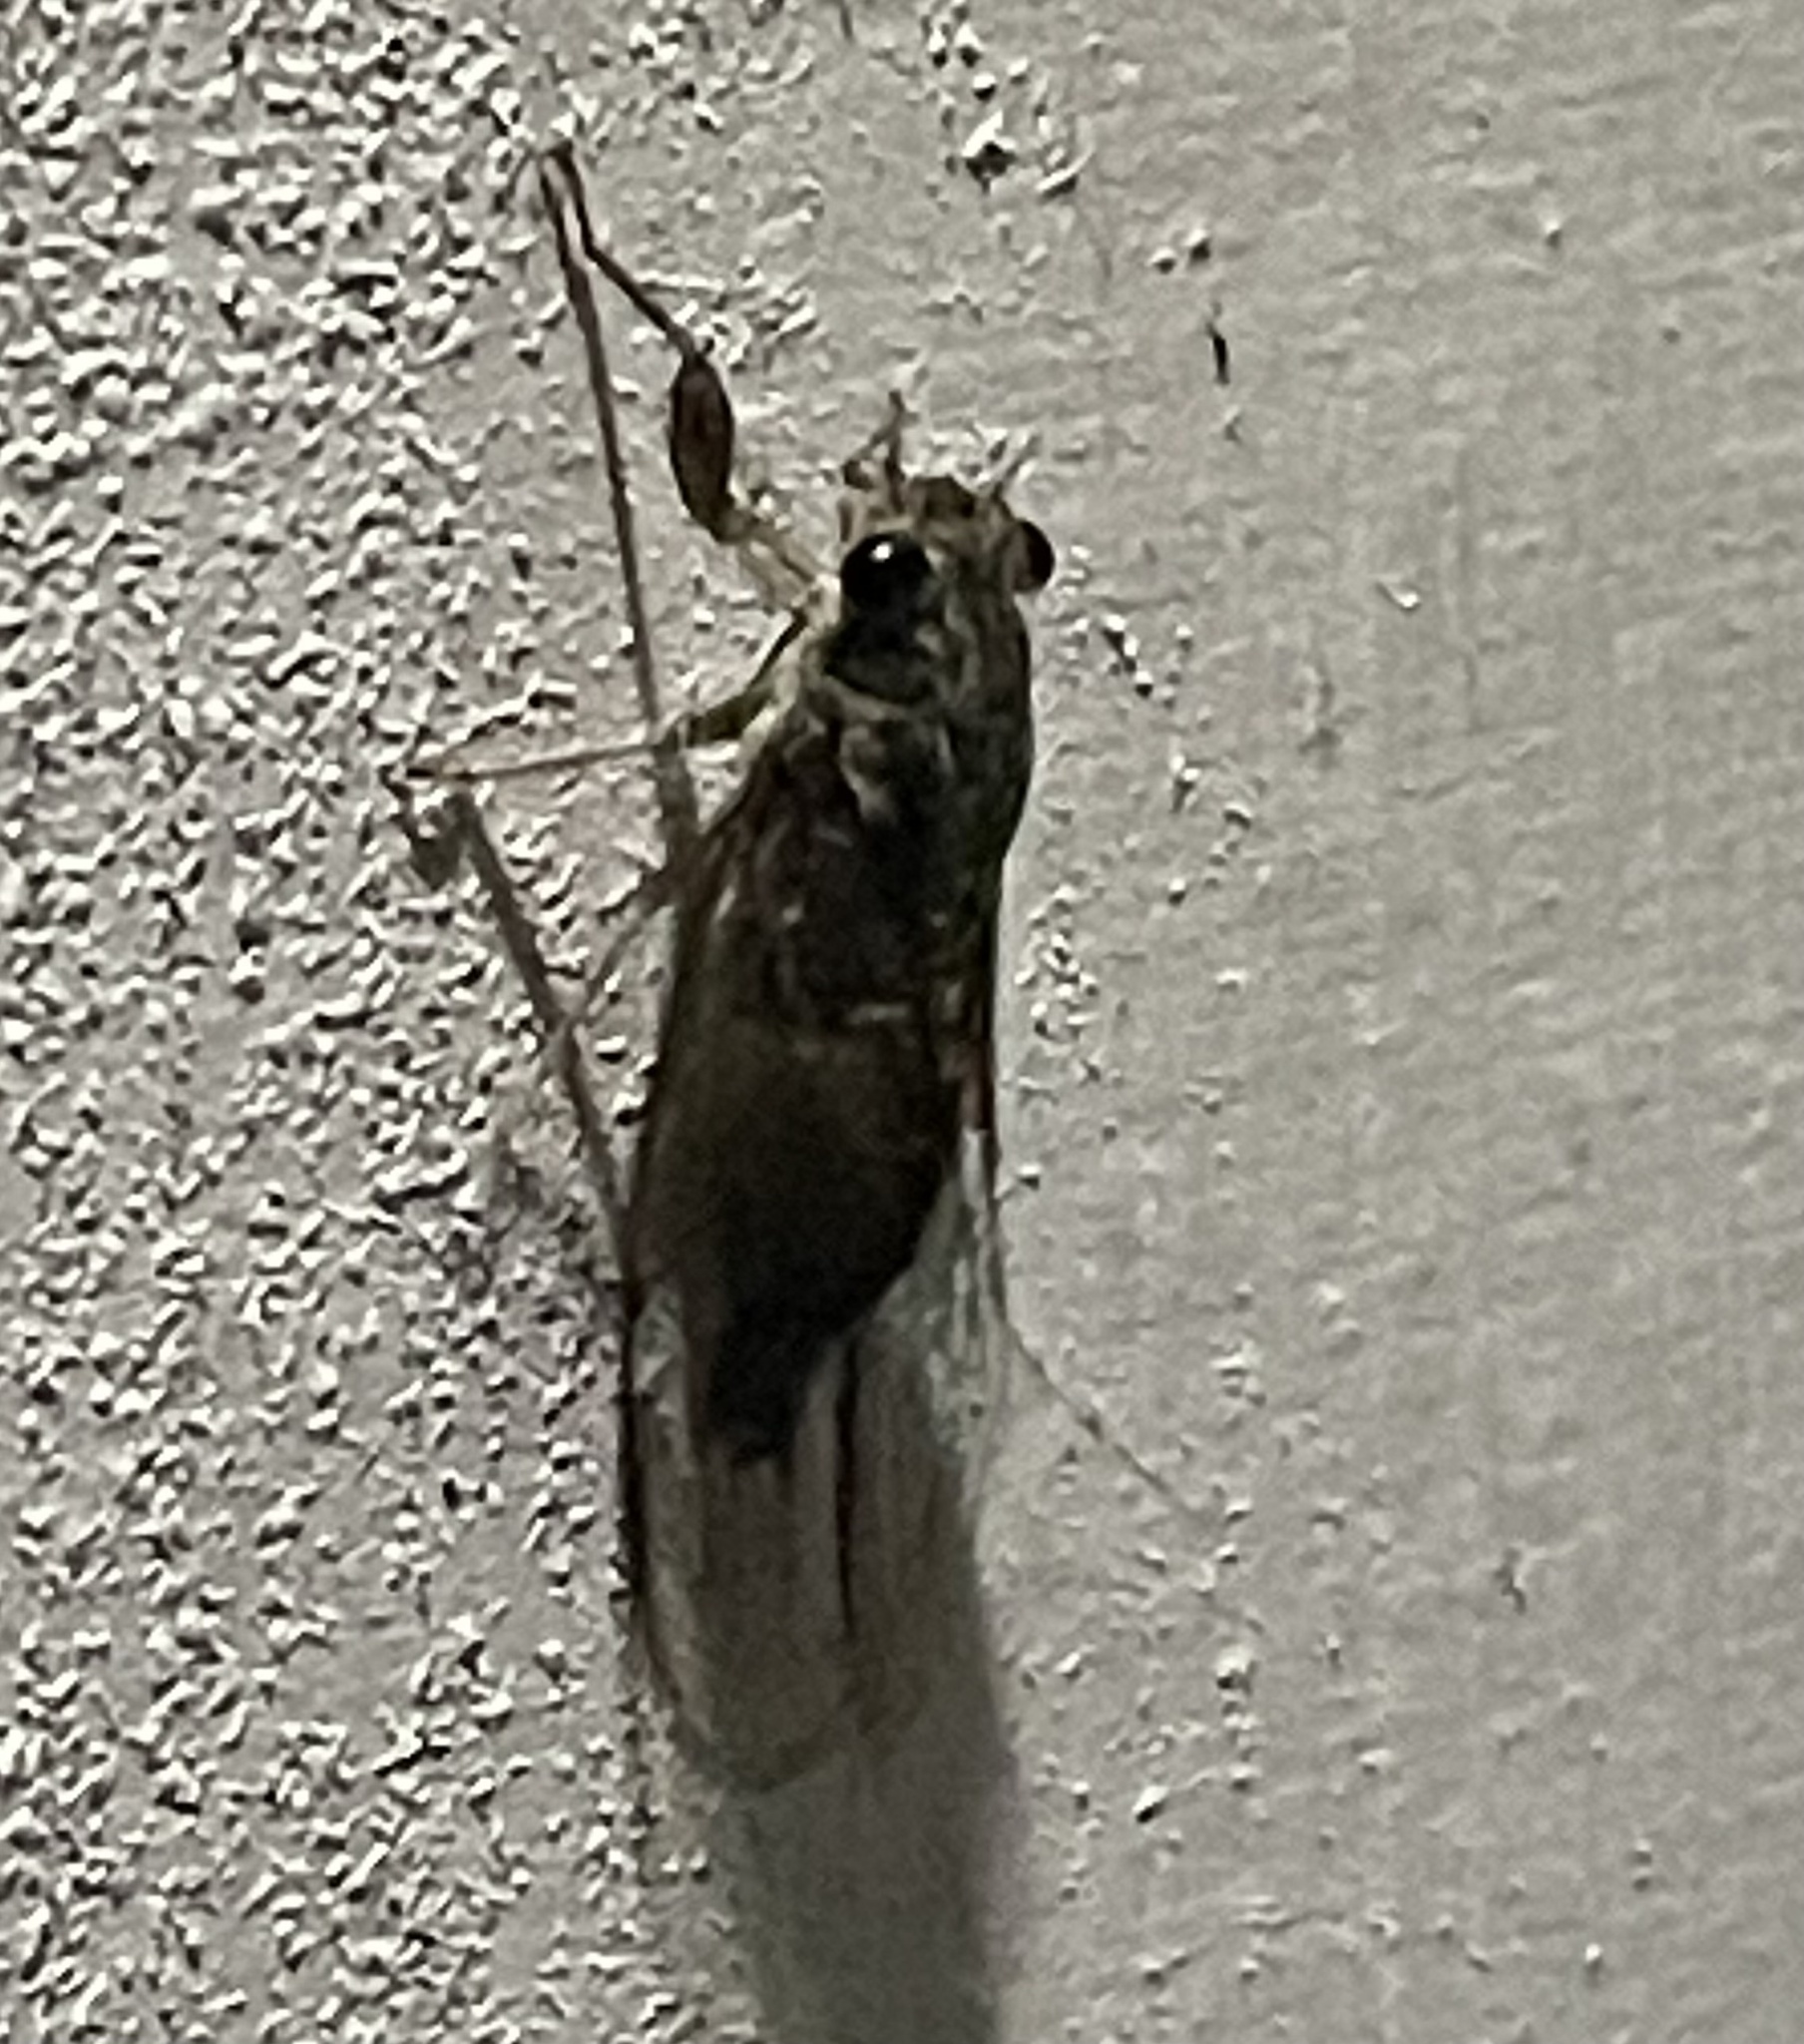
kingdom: Animalia
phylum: Arthropoda
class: Insecta
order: Hemiptera
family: Cicadidae
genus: Yoyetta
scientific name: Yoyetta celis
